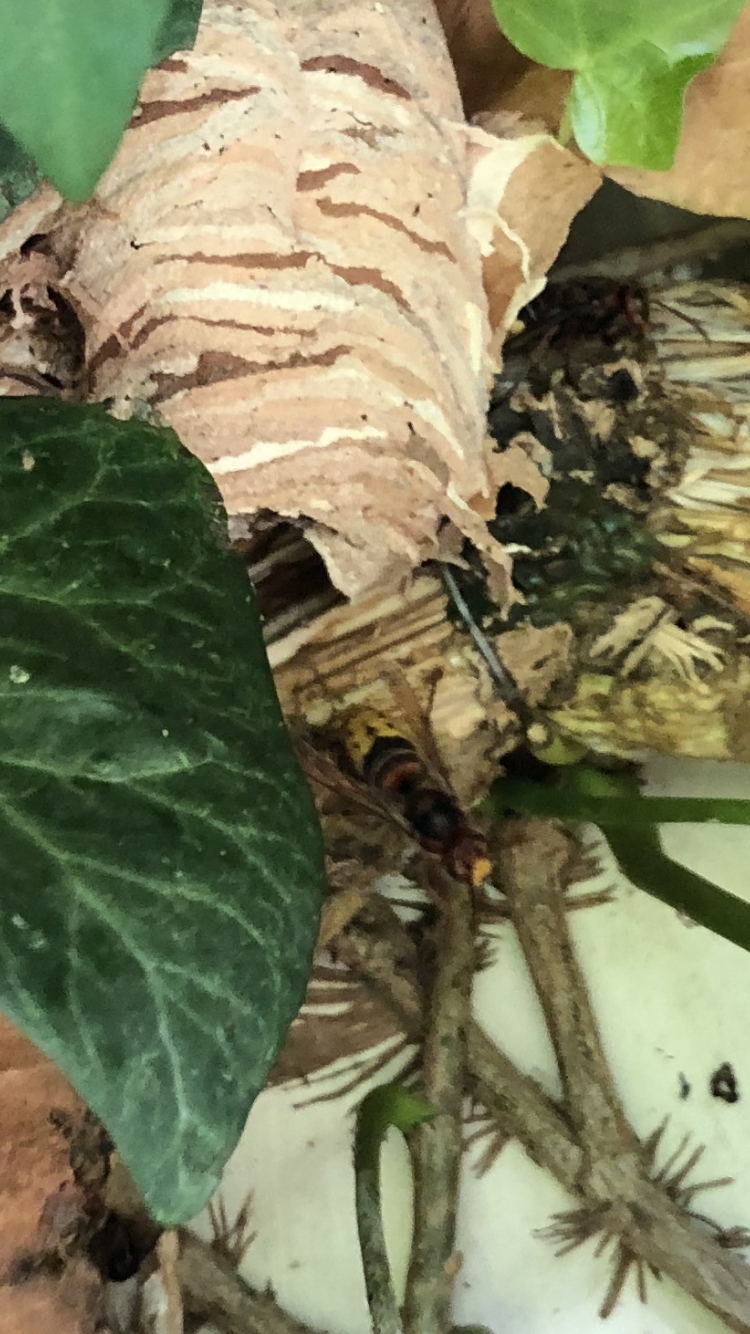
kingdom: Animalia
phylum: Arthropoda
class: Insecta
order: Hymenoptera
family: Vespidae
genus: Vespa
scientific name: Vespa crabro
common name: Hornet
